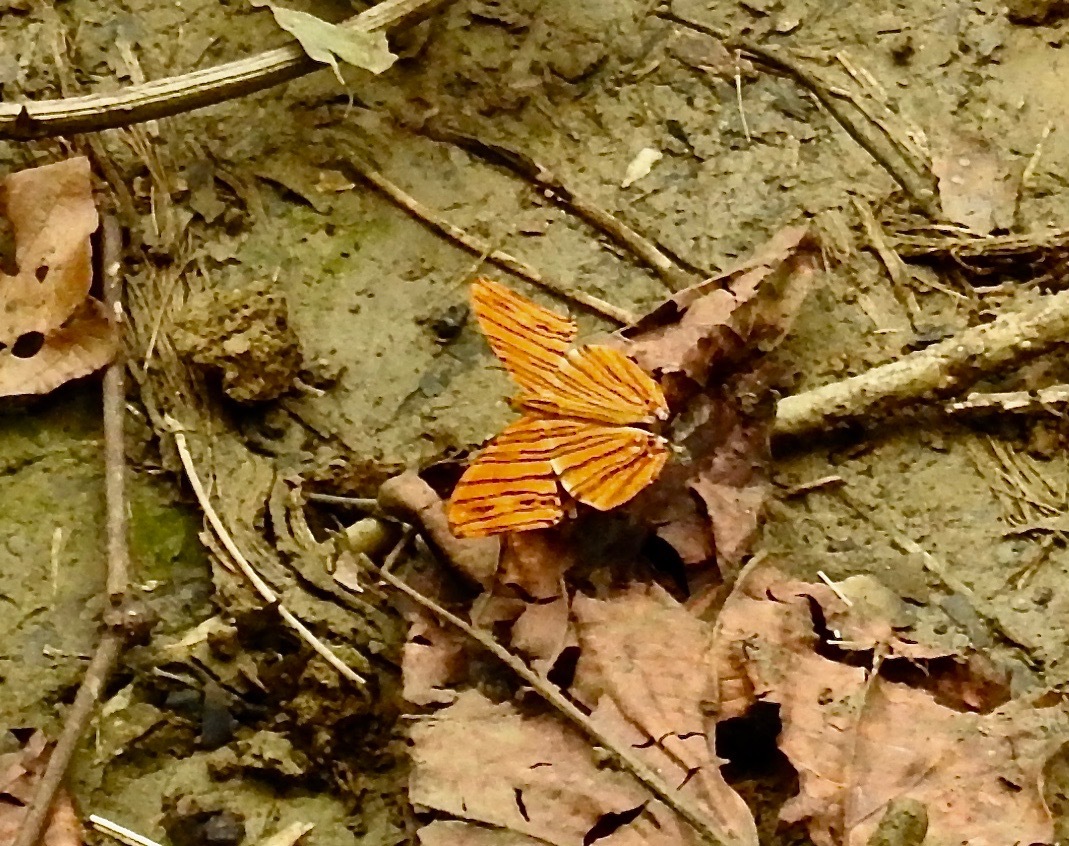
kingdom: Animalia
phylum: Arthropoda
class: Insecta
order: Lepidoptera
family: Nymphalidae
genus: Chersonesia
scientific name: Chersonesia risa
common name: Common maplet
